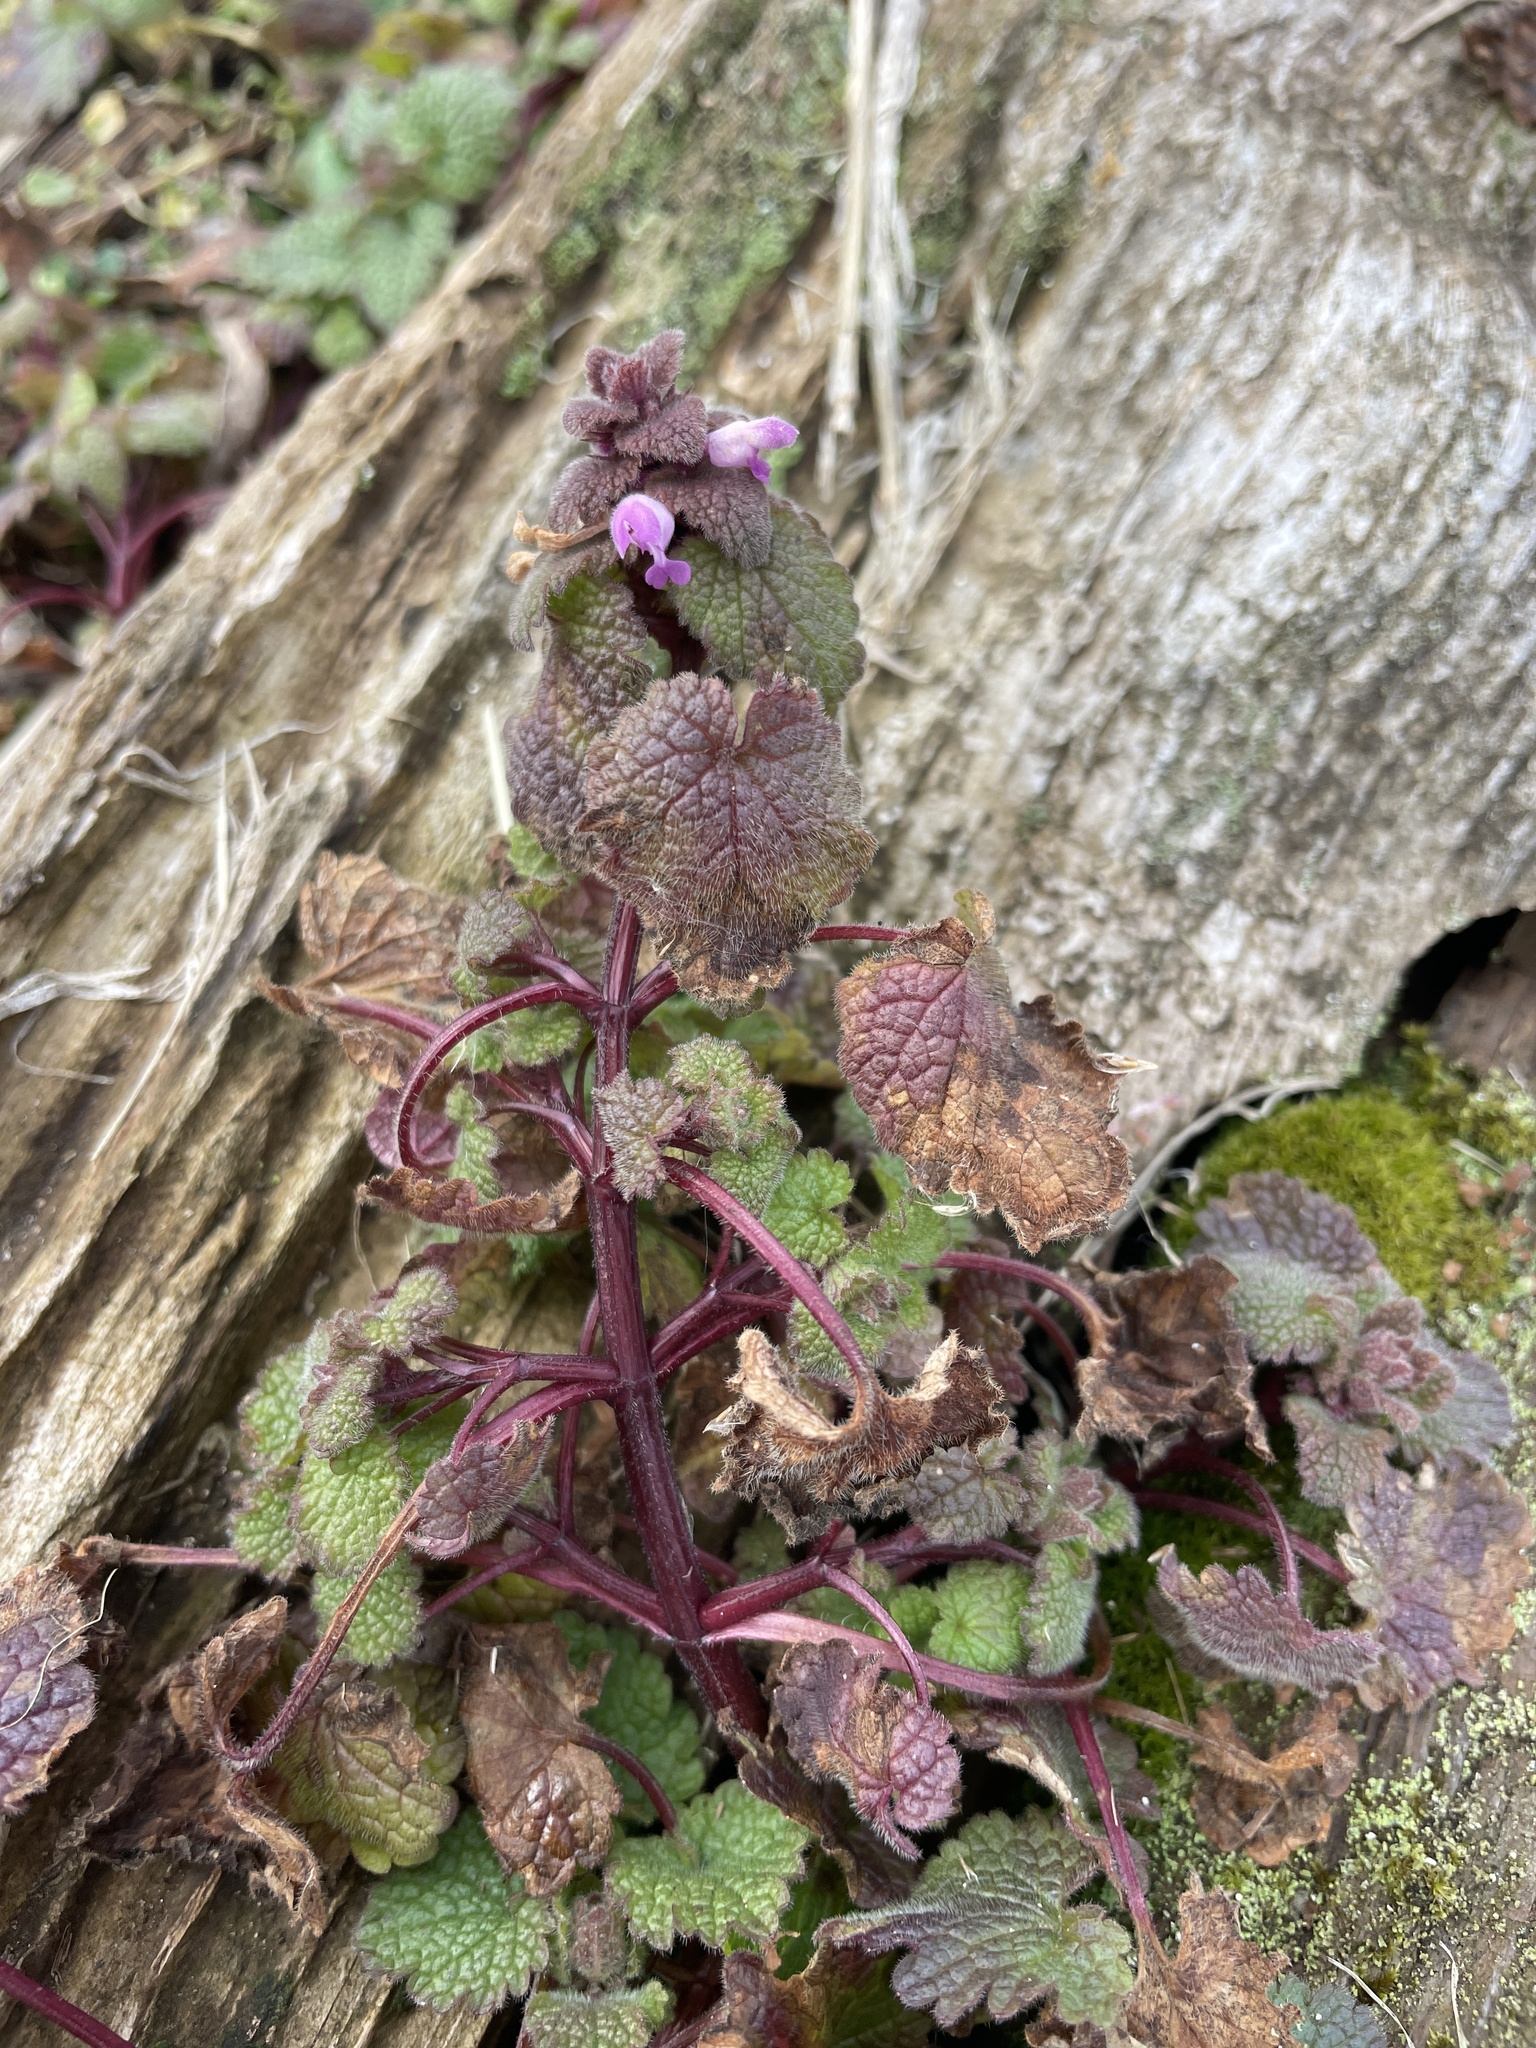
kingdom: Plantae
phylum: Tracheophyta
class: Magnoliopsida
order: Lamiales
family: Lamiaceae
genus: Lamium
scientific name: Lamium purpureum
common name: Red dead-nettle
